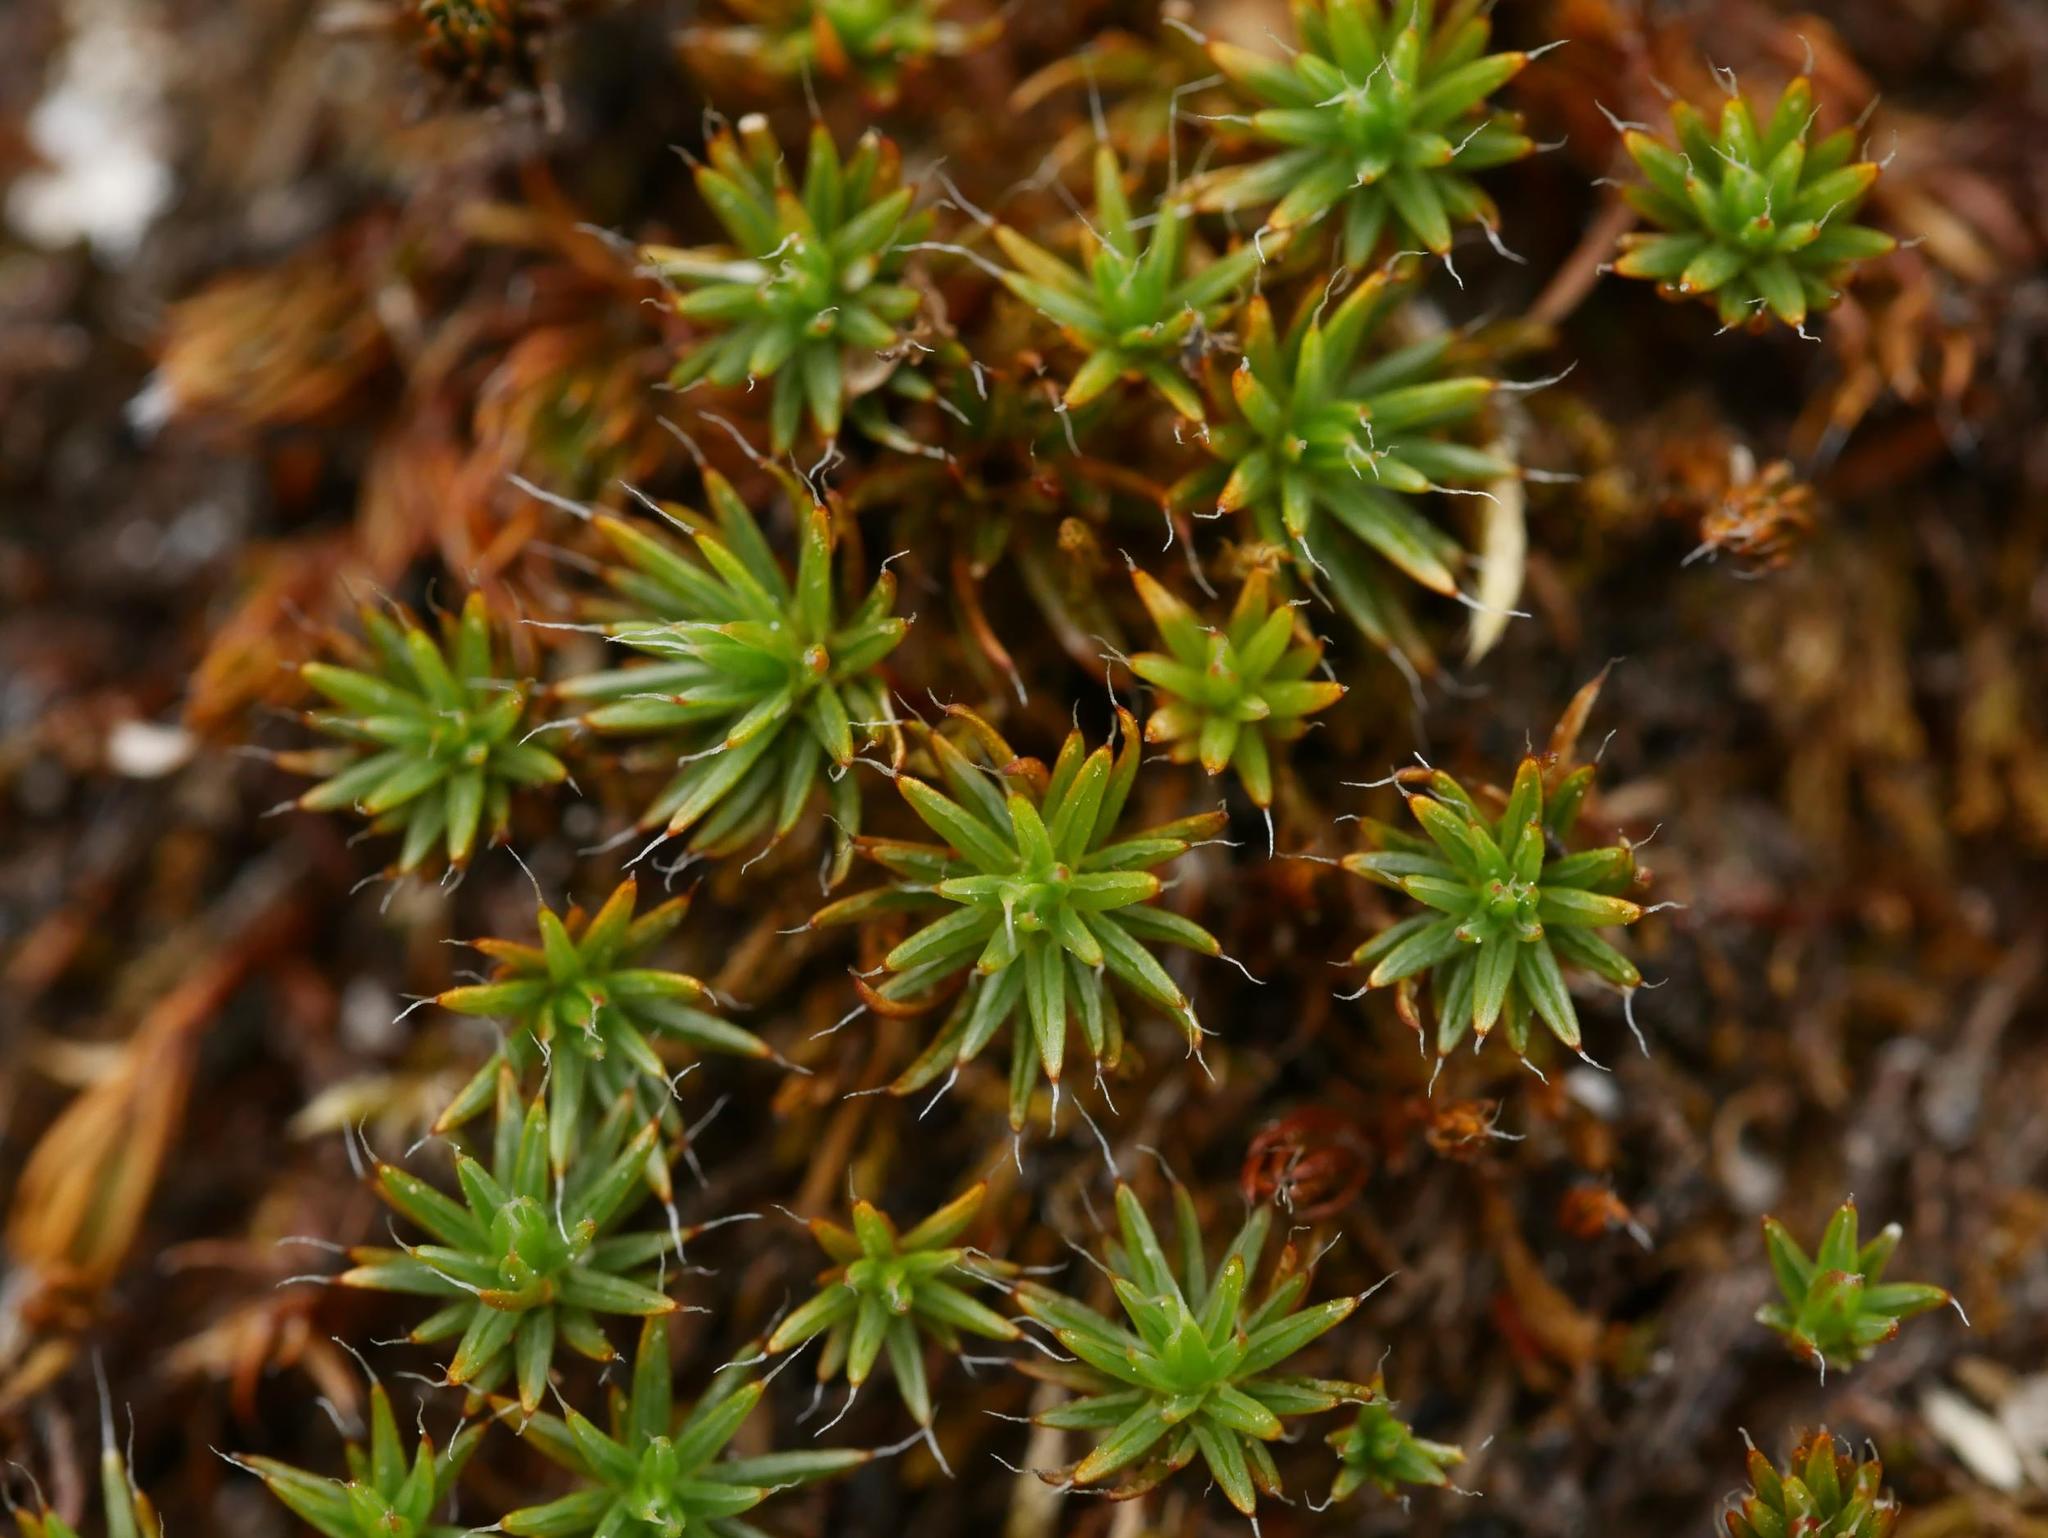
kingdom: Plantae
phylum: Bryophyta
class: Polytrichopsida
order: Polytrichales
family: Polytrichaceae
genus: Polytrichum
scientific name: Polytrichum piliferum
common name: Bristly haircap
